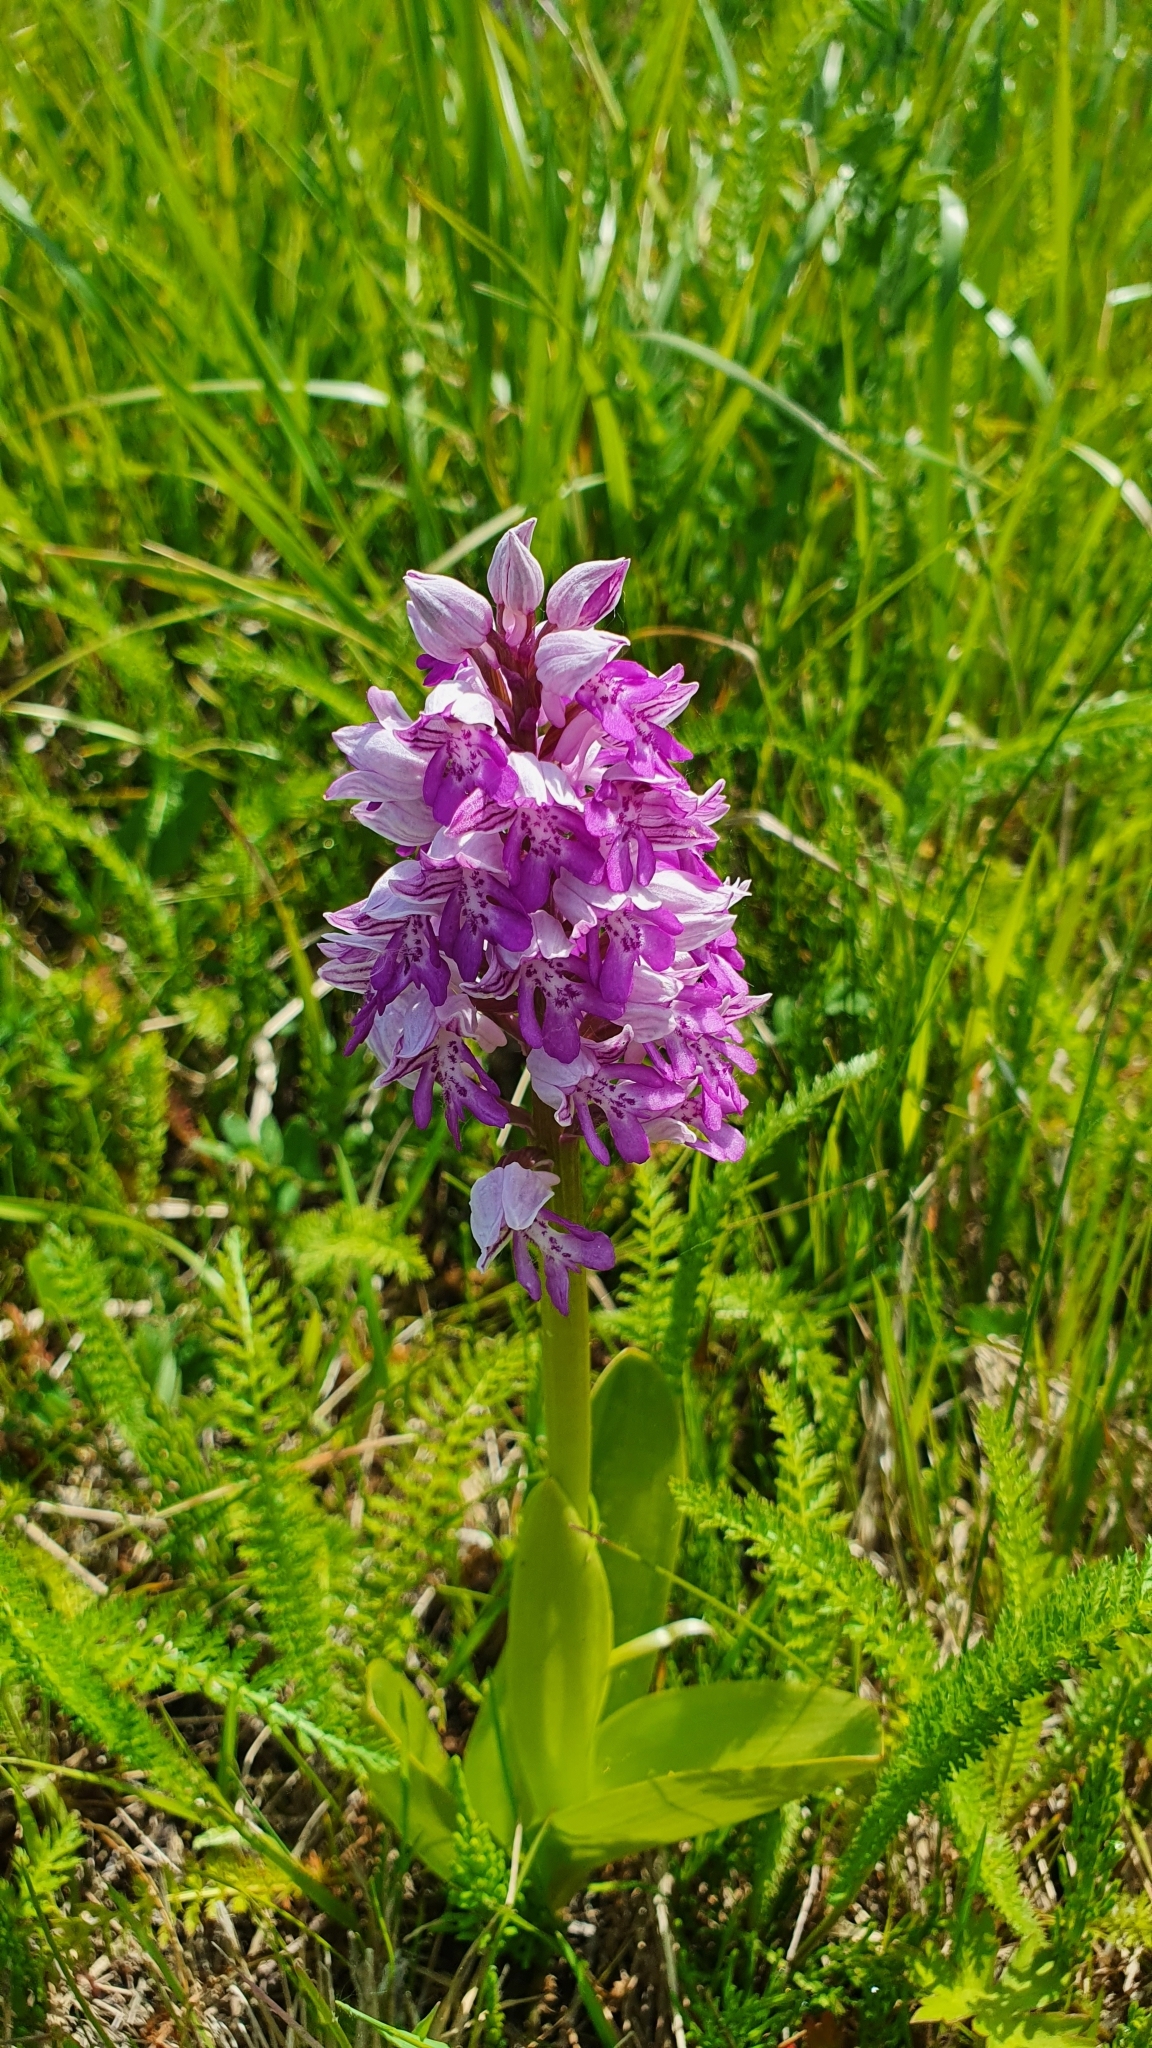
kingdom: Plantae
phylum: Tracheophyta
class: Liliopsida
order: Asparagales
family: Orchidaceae
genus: Orchis
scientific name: Orchis militaris
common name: Military orchid
